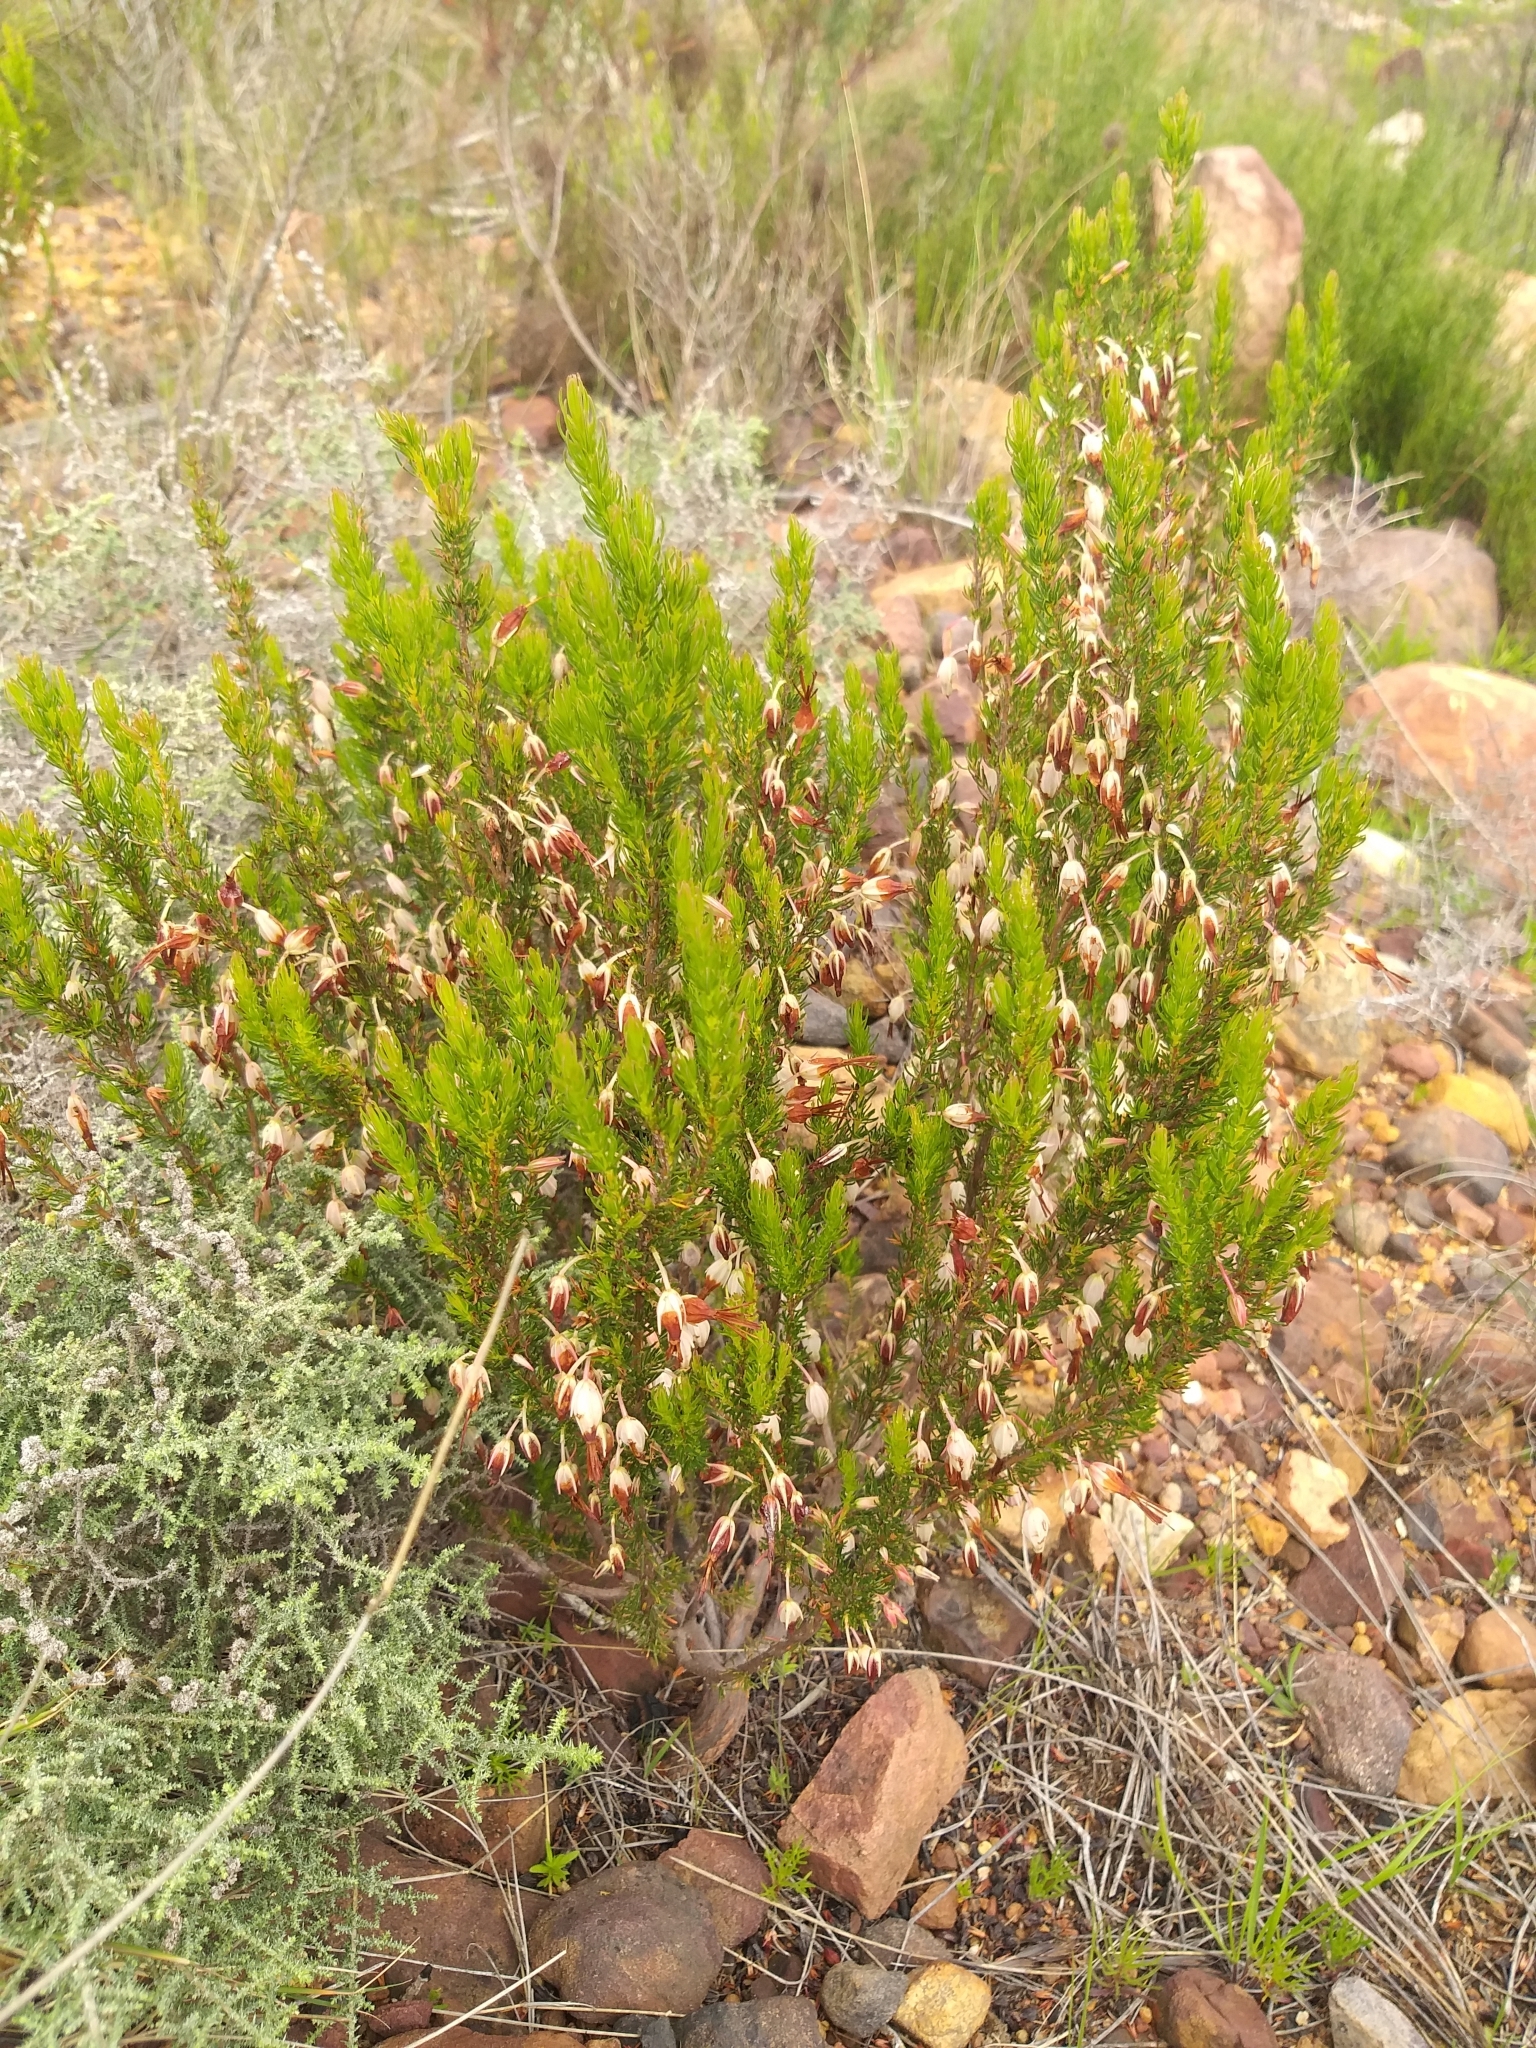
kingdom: Plantae
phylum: Tracheophyta
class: Magnoliopsida
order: Ericales
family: Ericaceae
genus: Erica
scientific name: Erica plukenetii
